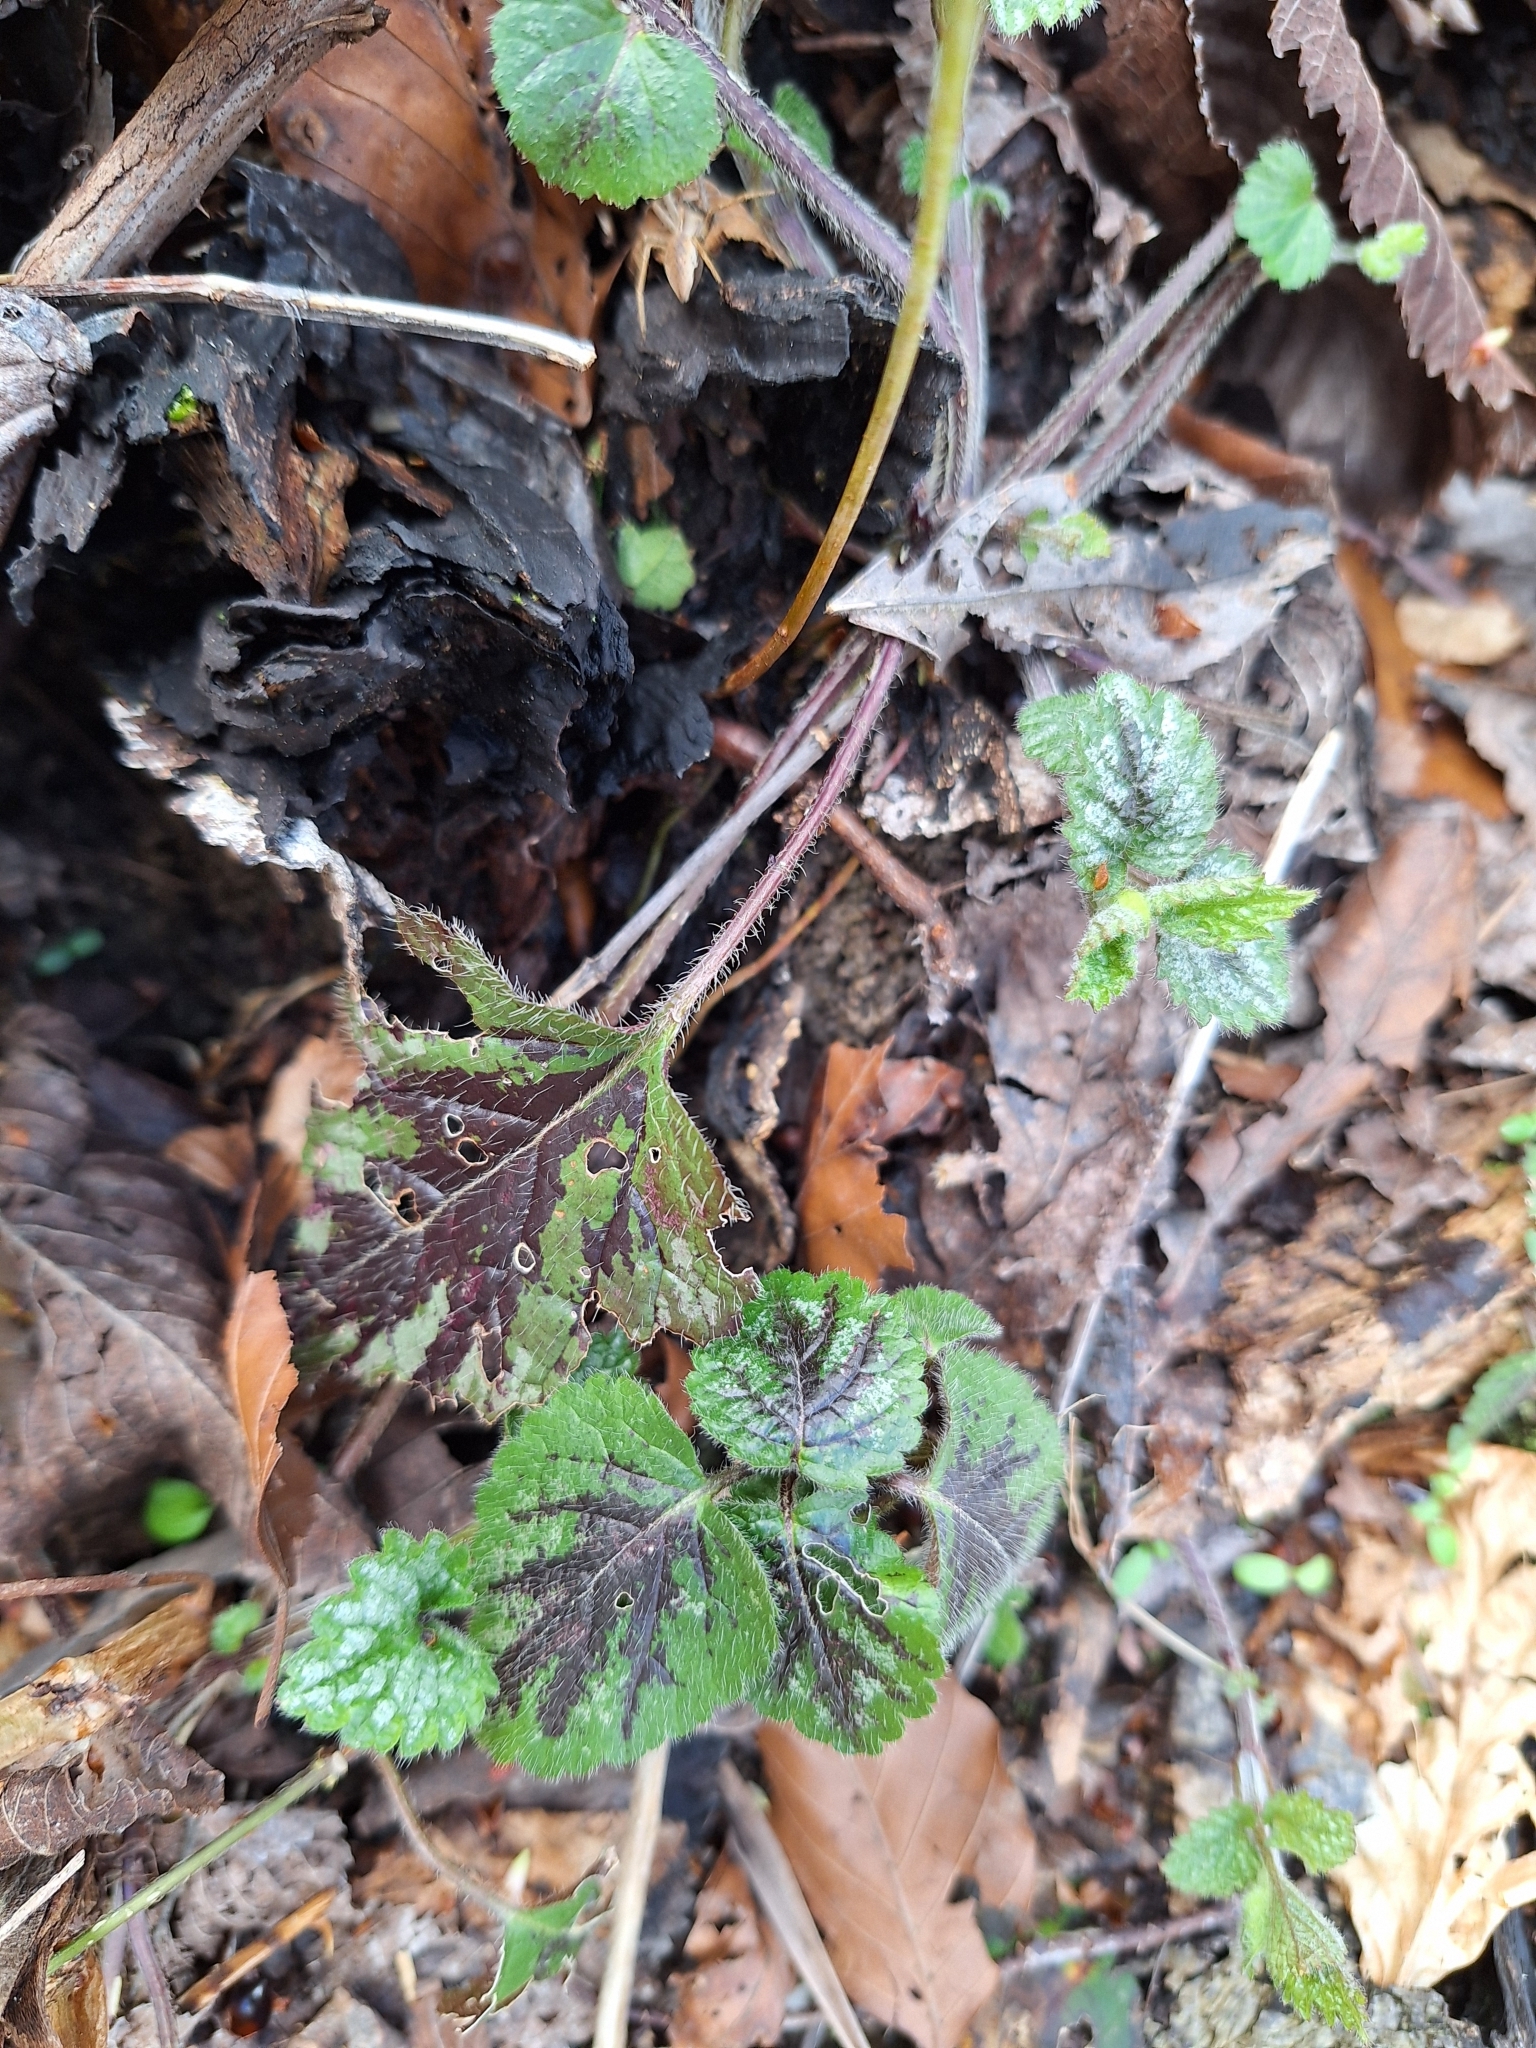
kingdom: Plantae
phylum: Tracheophyta
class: Magnoliopsida
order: Lamiales
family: Lamiaceae
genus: Lamium
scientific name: Lamium galeobdolon
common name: Yellow archangel
